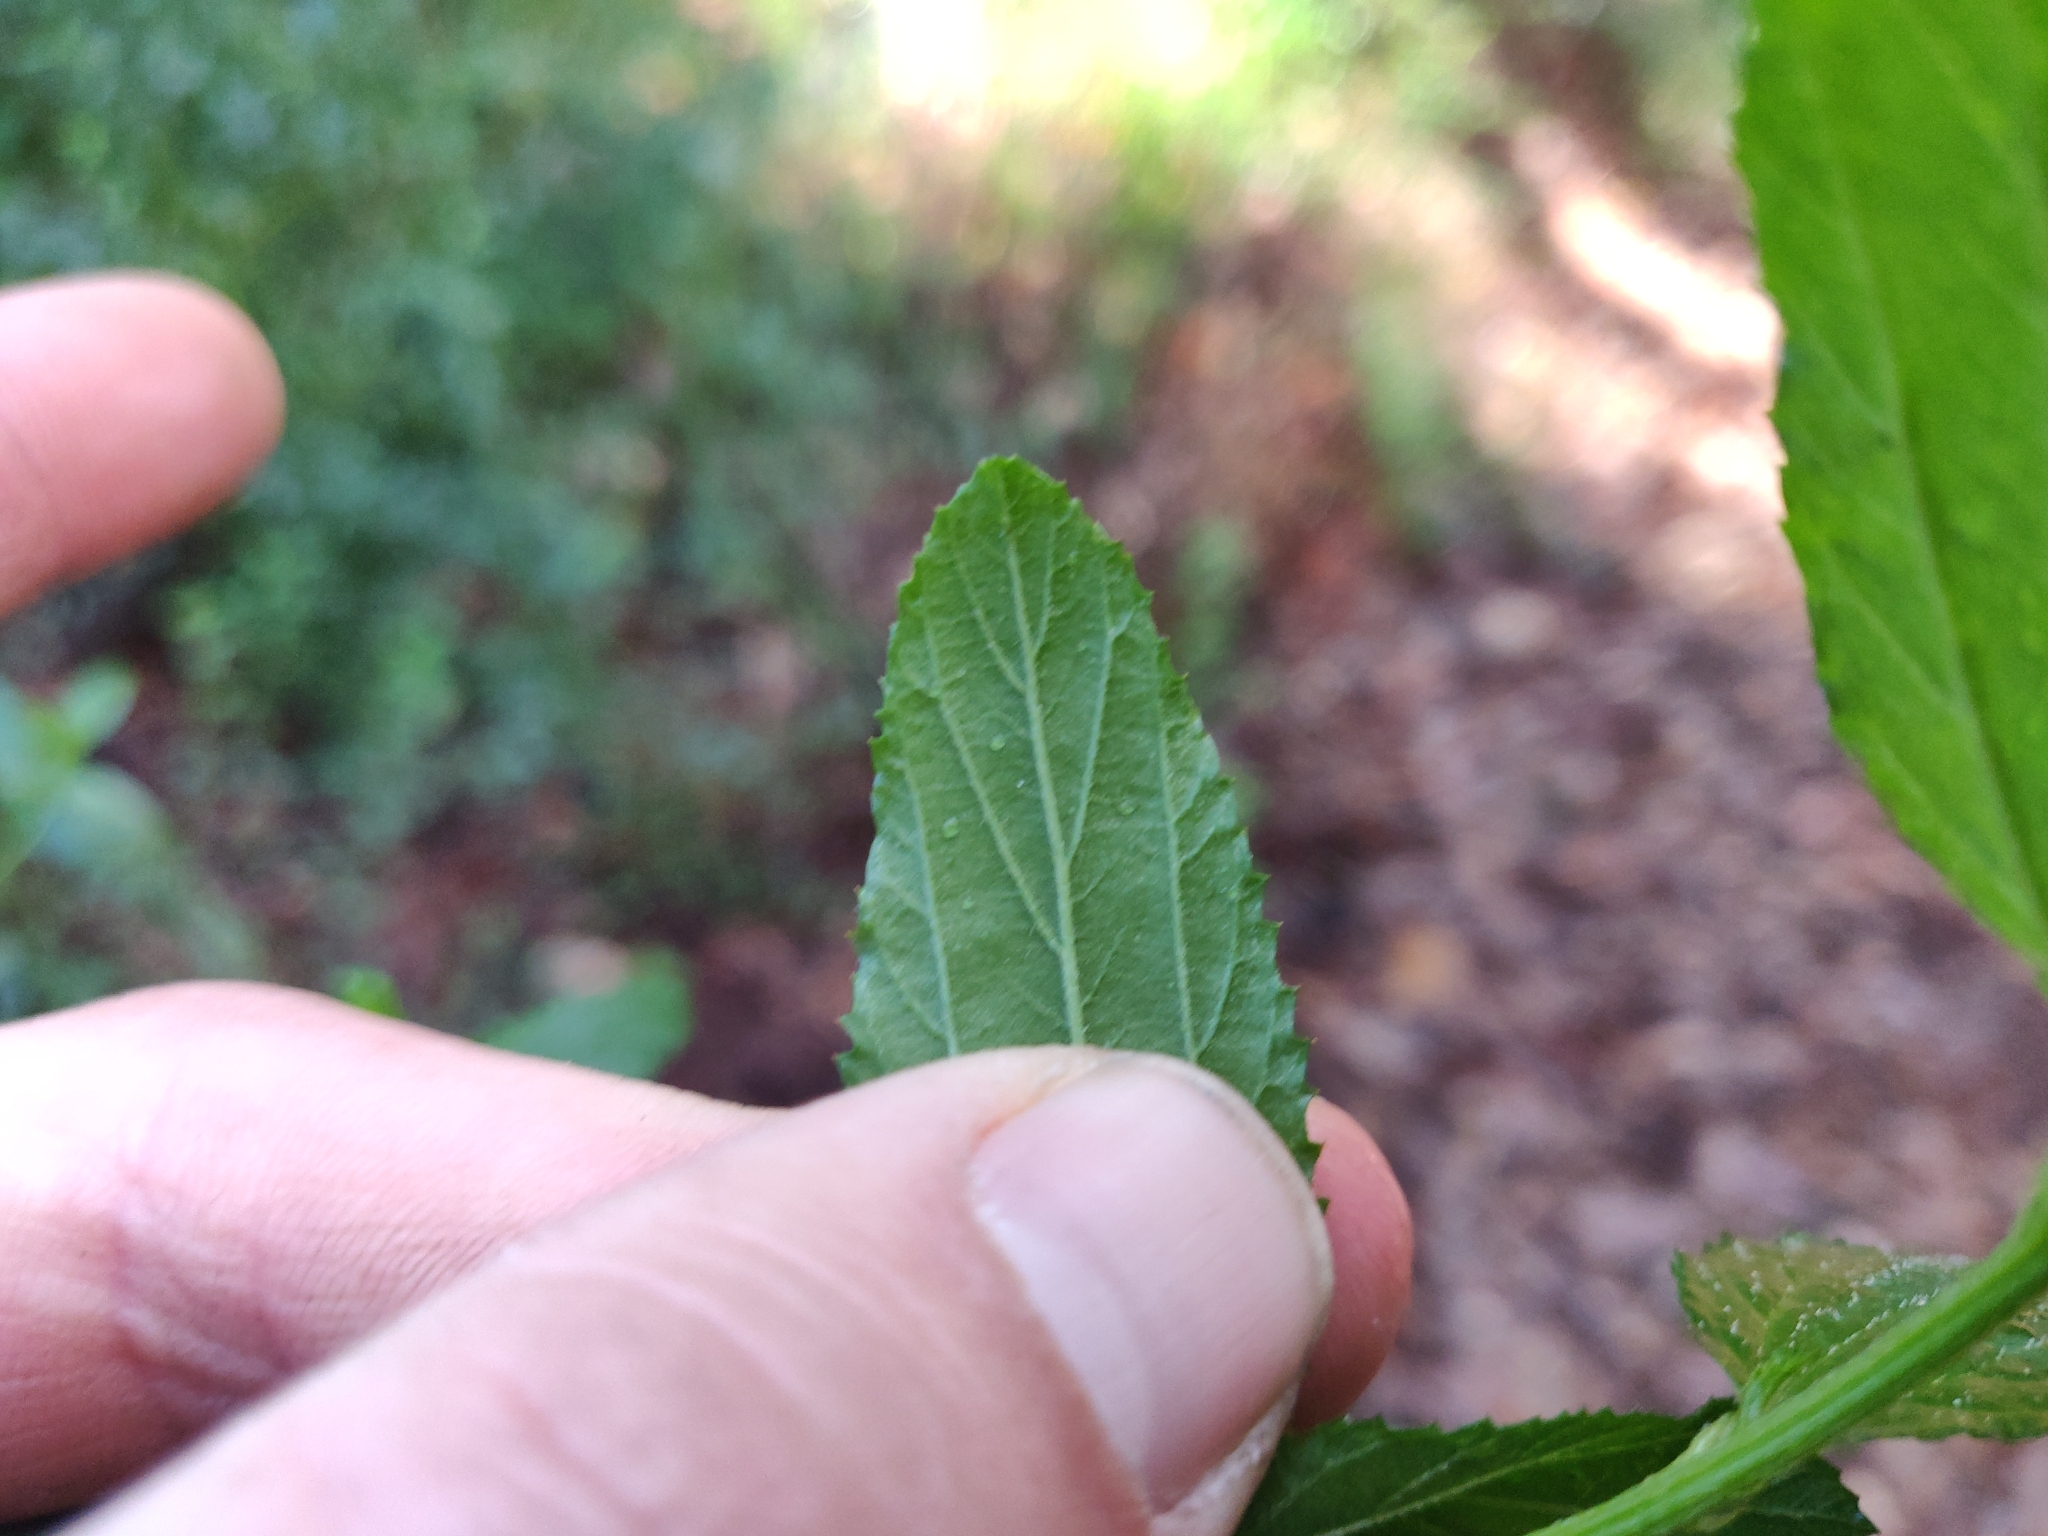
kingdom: Plantae
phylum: Tracheophyta
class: Magnoliopsida
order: Rosales
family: Rhamnaceae
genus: Ceanothus
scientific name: Ceanothus thyrsiflorus
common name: California-lilac
